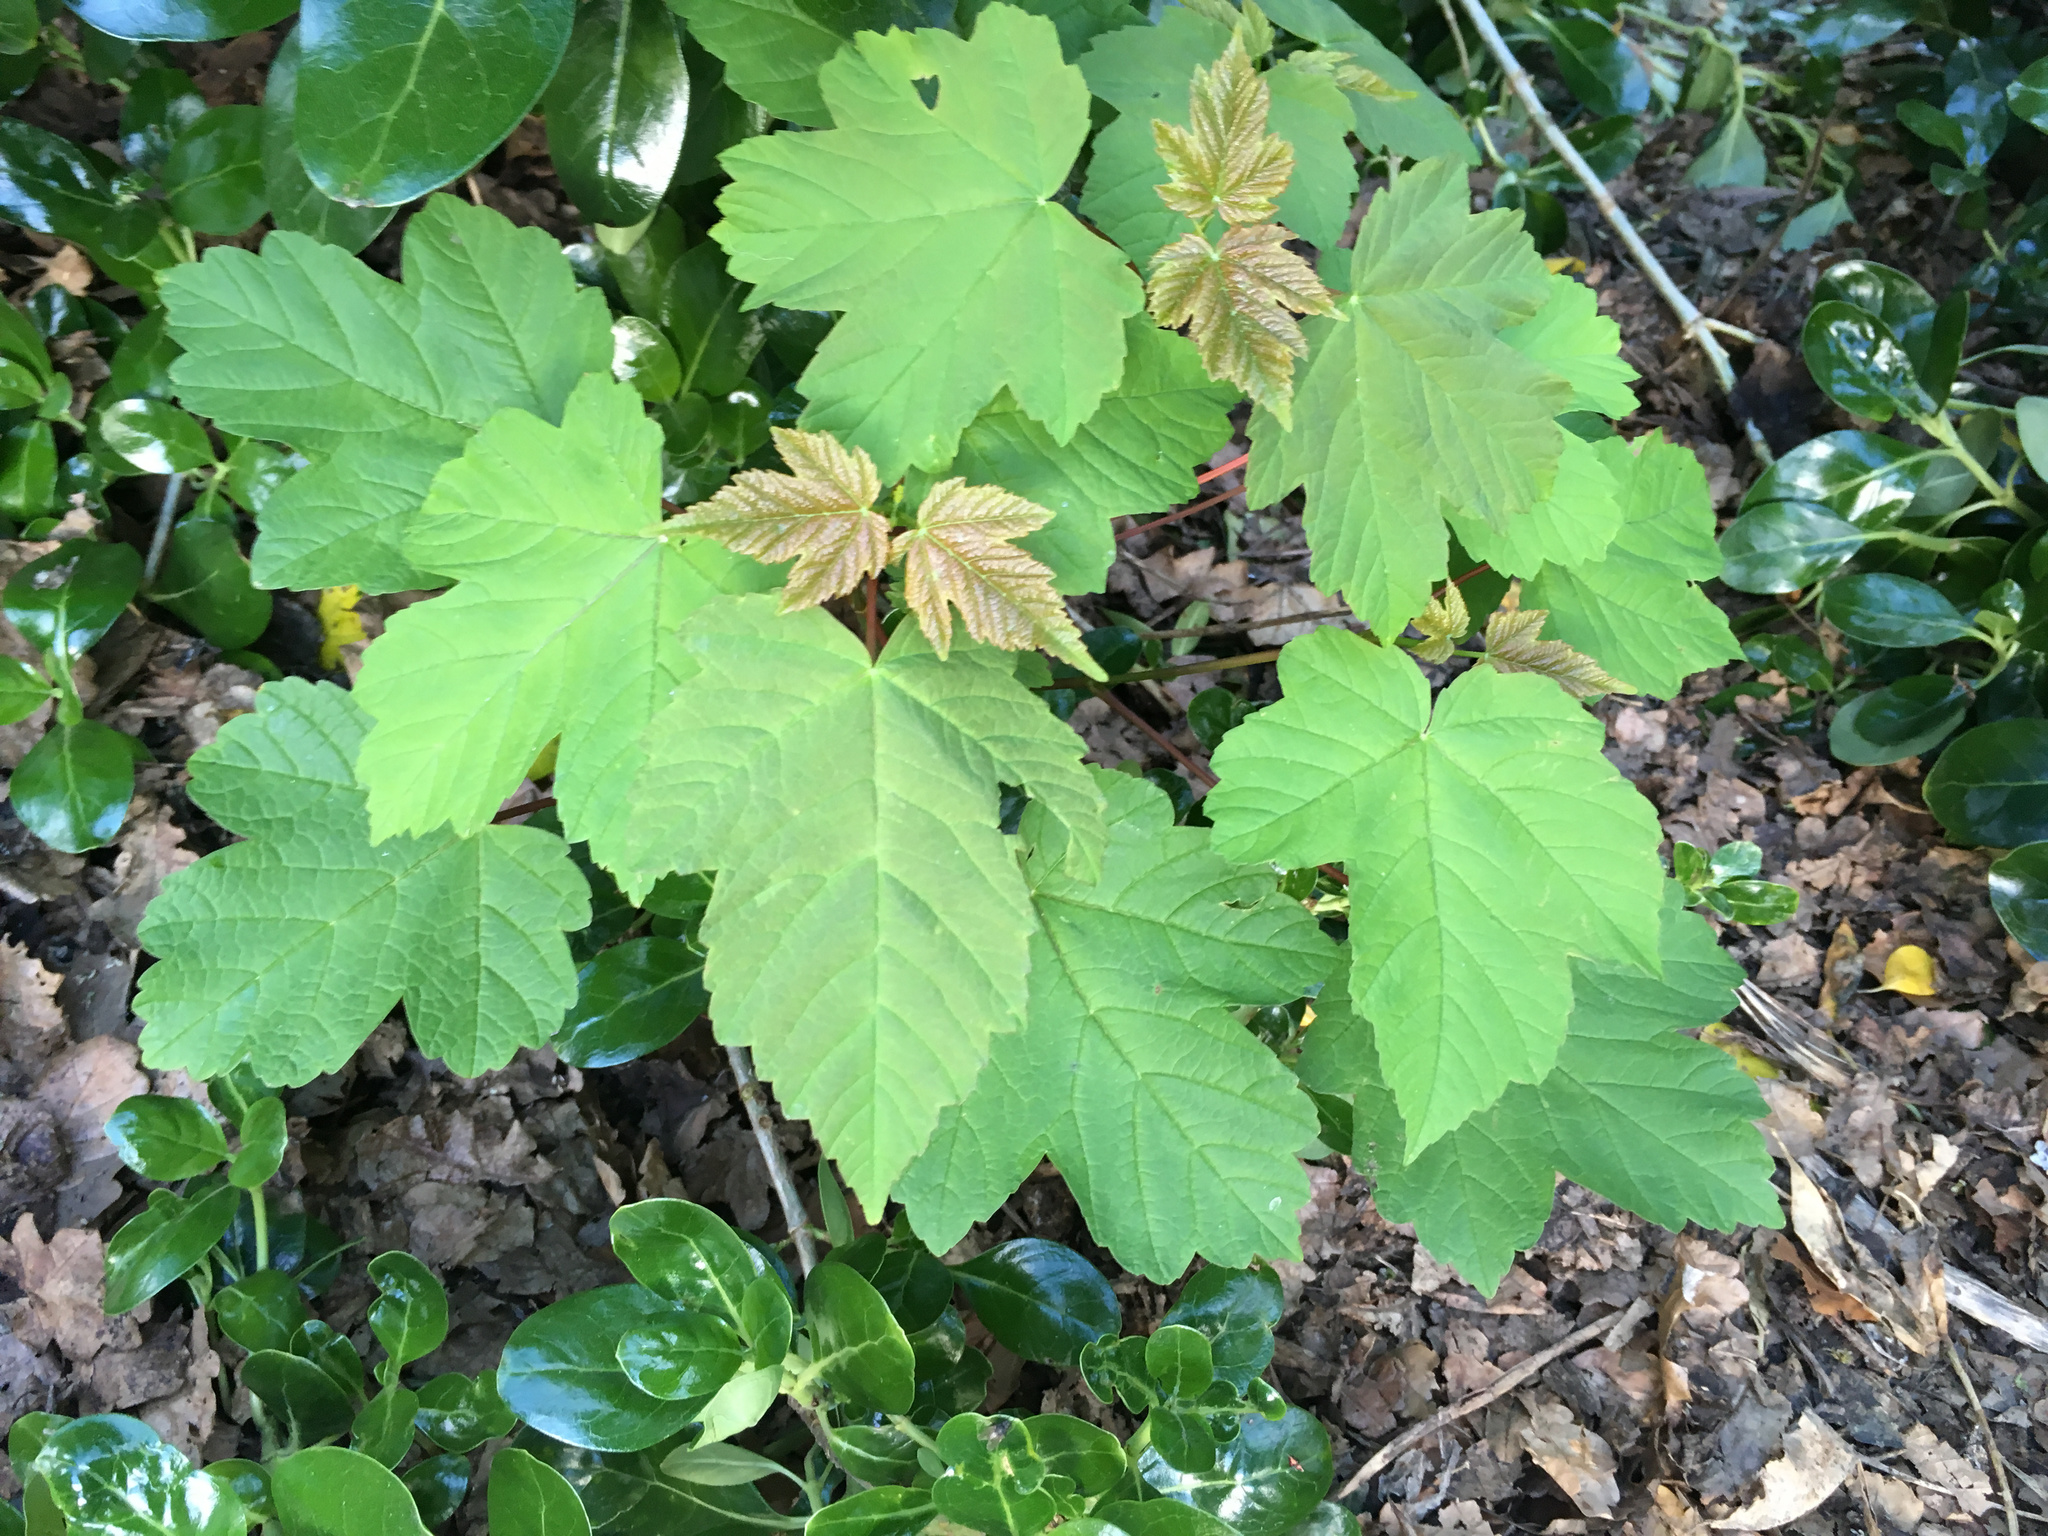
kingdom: Plantae
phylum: Tracheophyta
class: Magnoliopsida
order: Sapindales
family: Sapindaceae
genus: Acer
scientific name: Acer pseudoplatanus
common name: Sycamore
